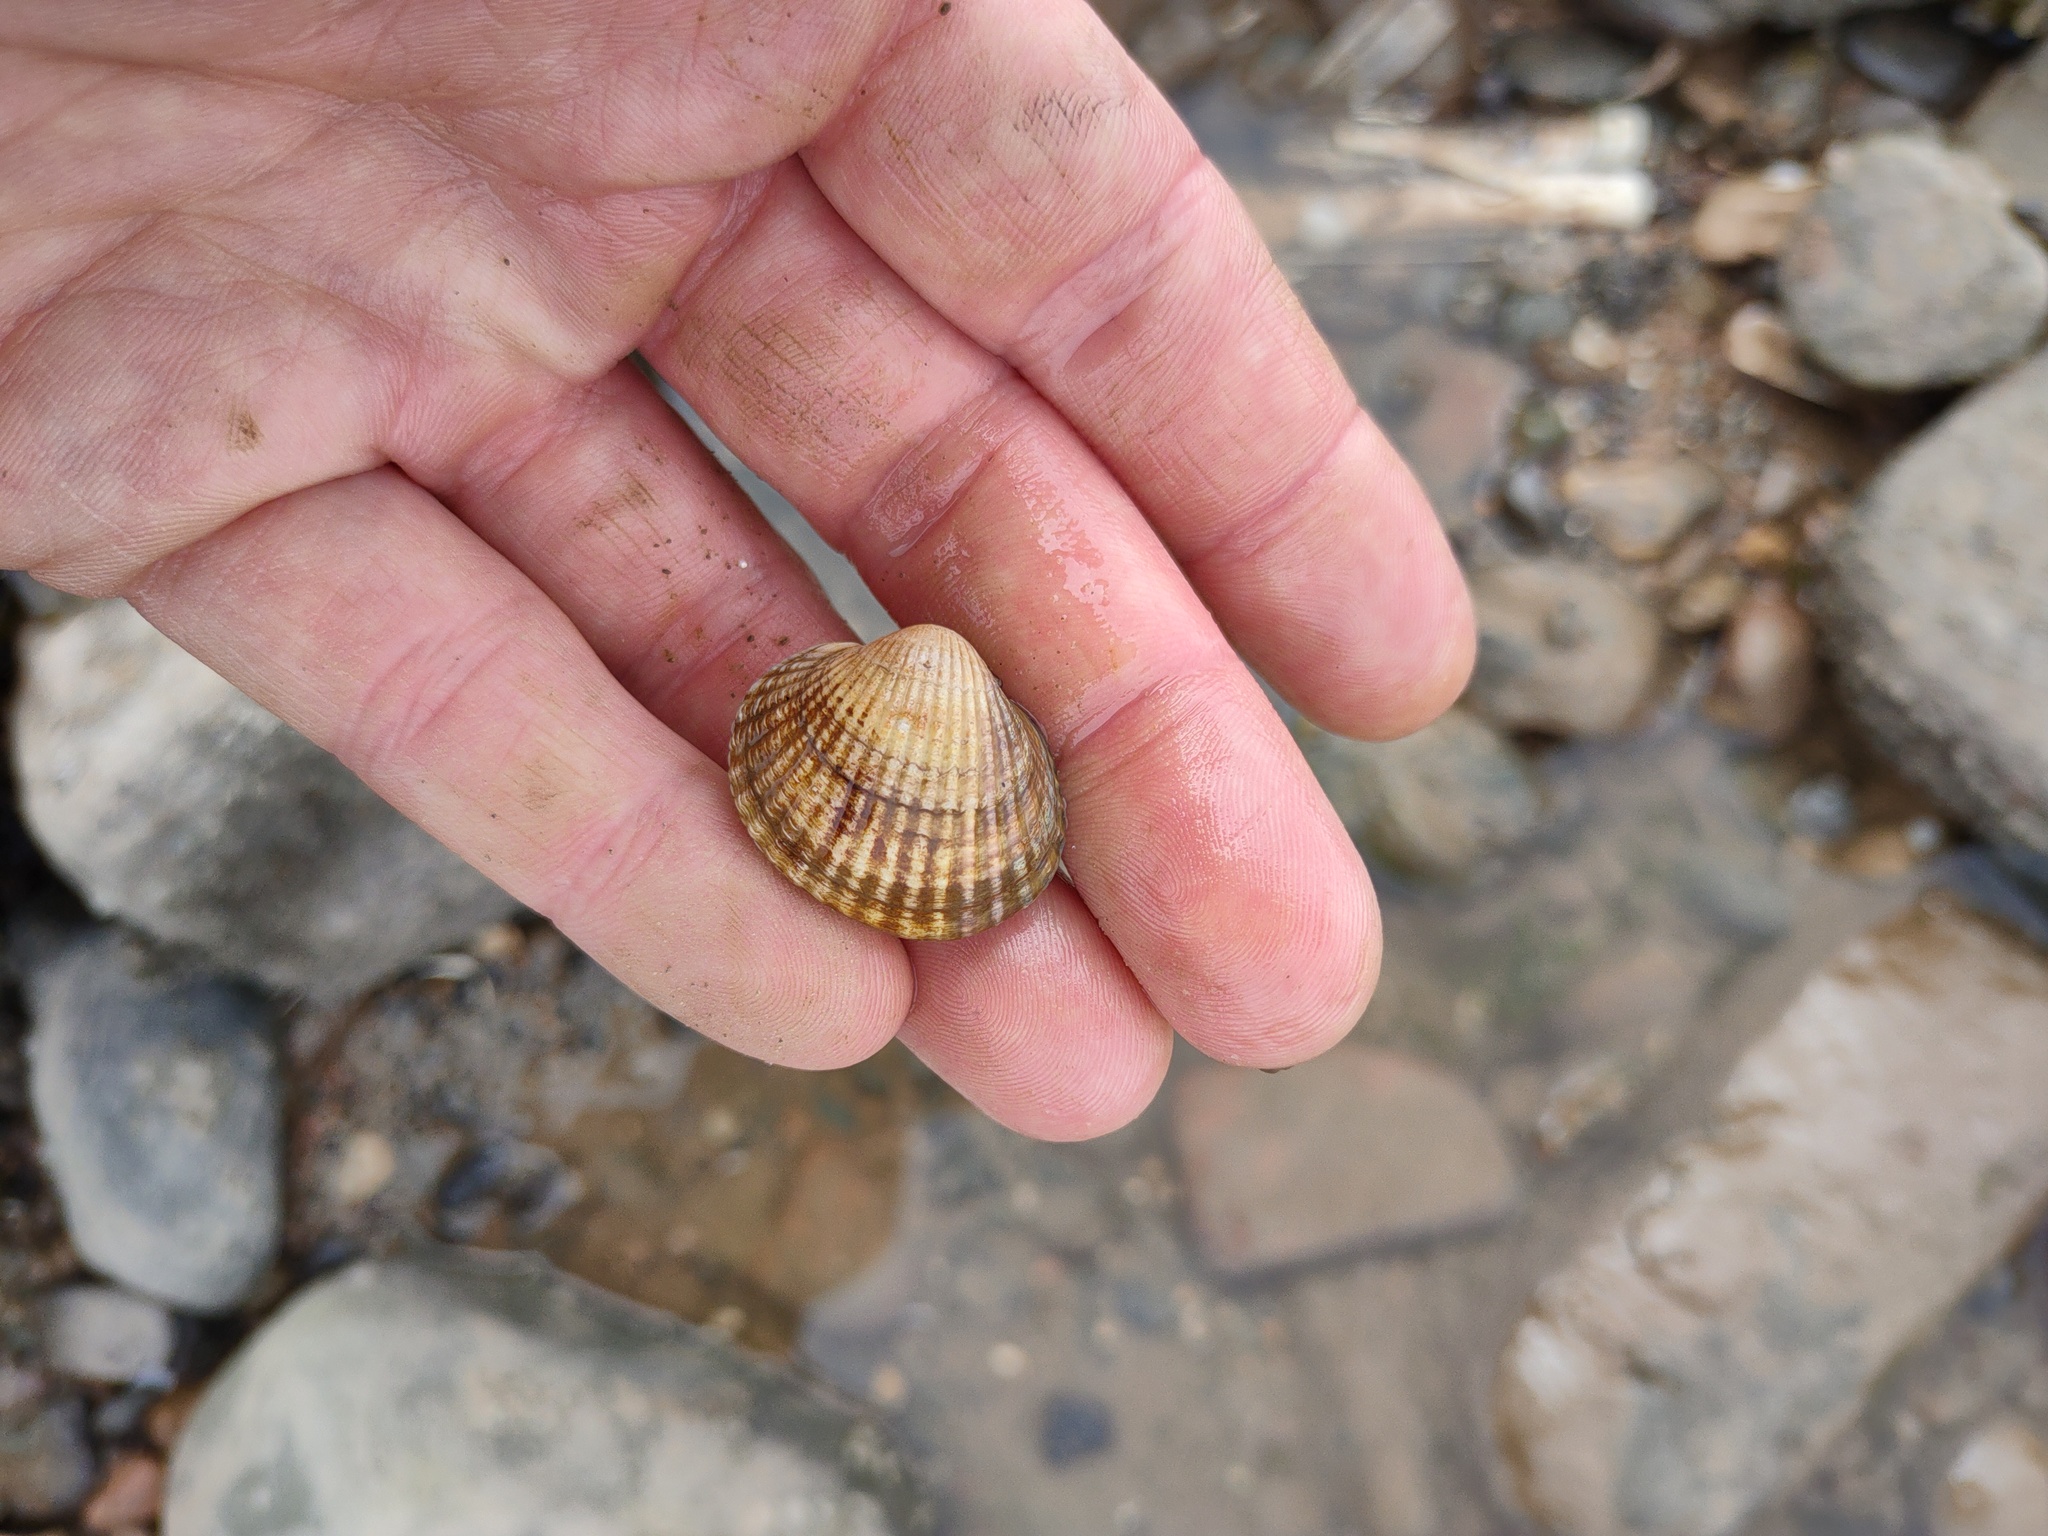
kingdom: Animalia
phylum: Mollusca
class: Bivalvia
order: Cardiida
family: Cardiidae
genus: Cerastoderma
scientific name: Cerastoderma edule
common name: Common cockle
